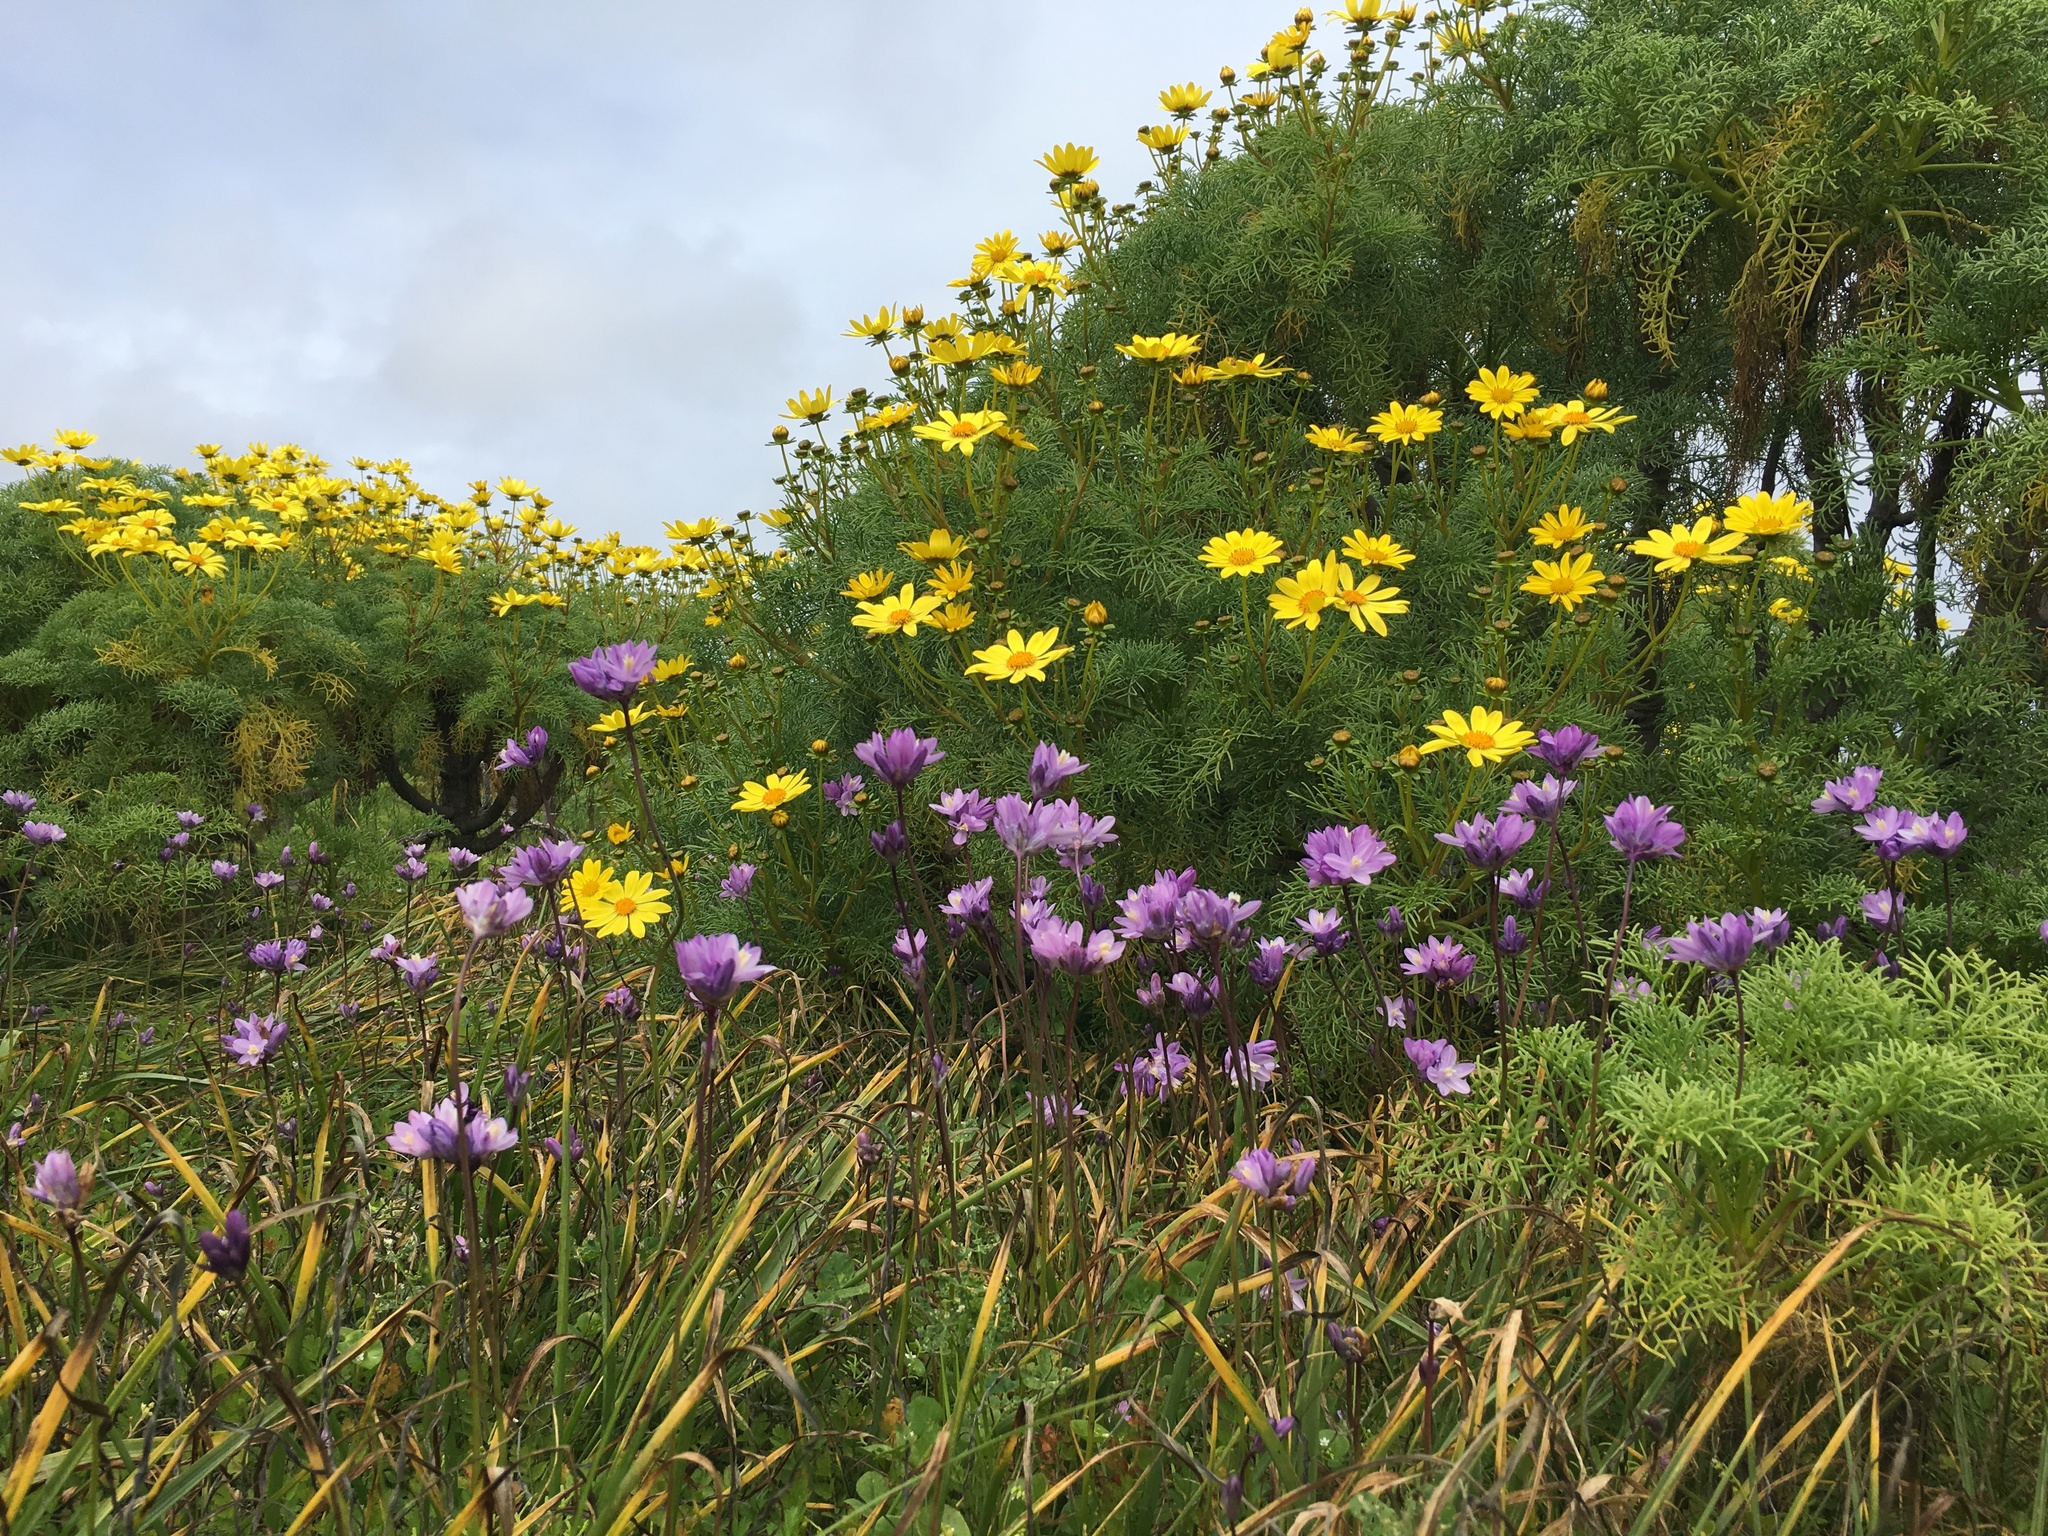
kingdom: Plantae
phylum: Tracheophyta
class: Liliopsida
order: Asparagales
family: Asparagaceae
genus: Dipterostemon
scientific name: Dipterostemon capitatus
